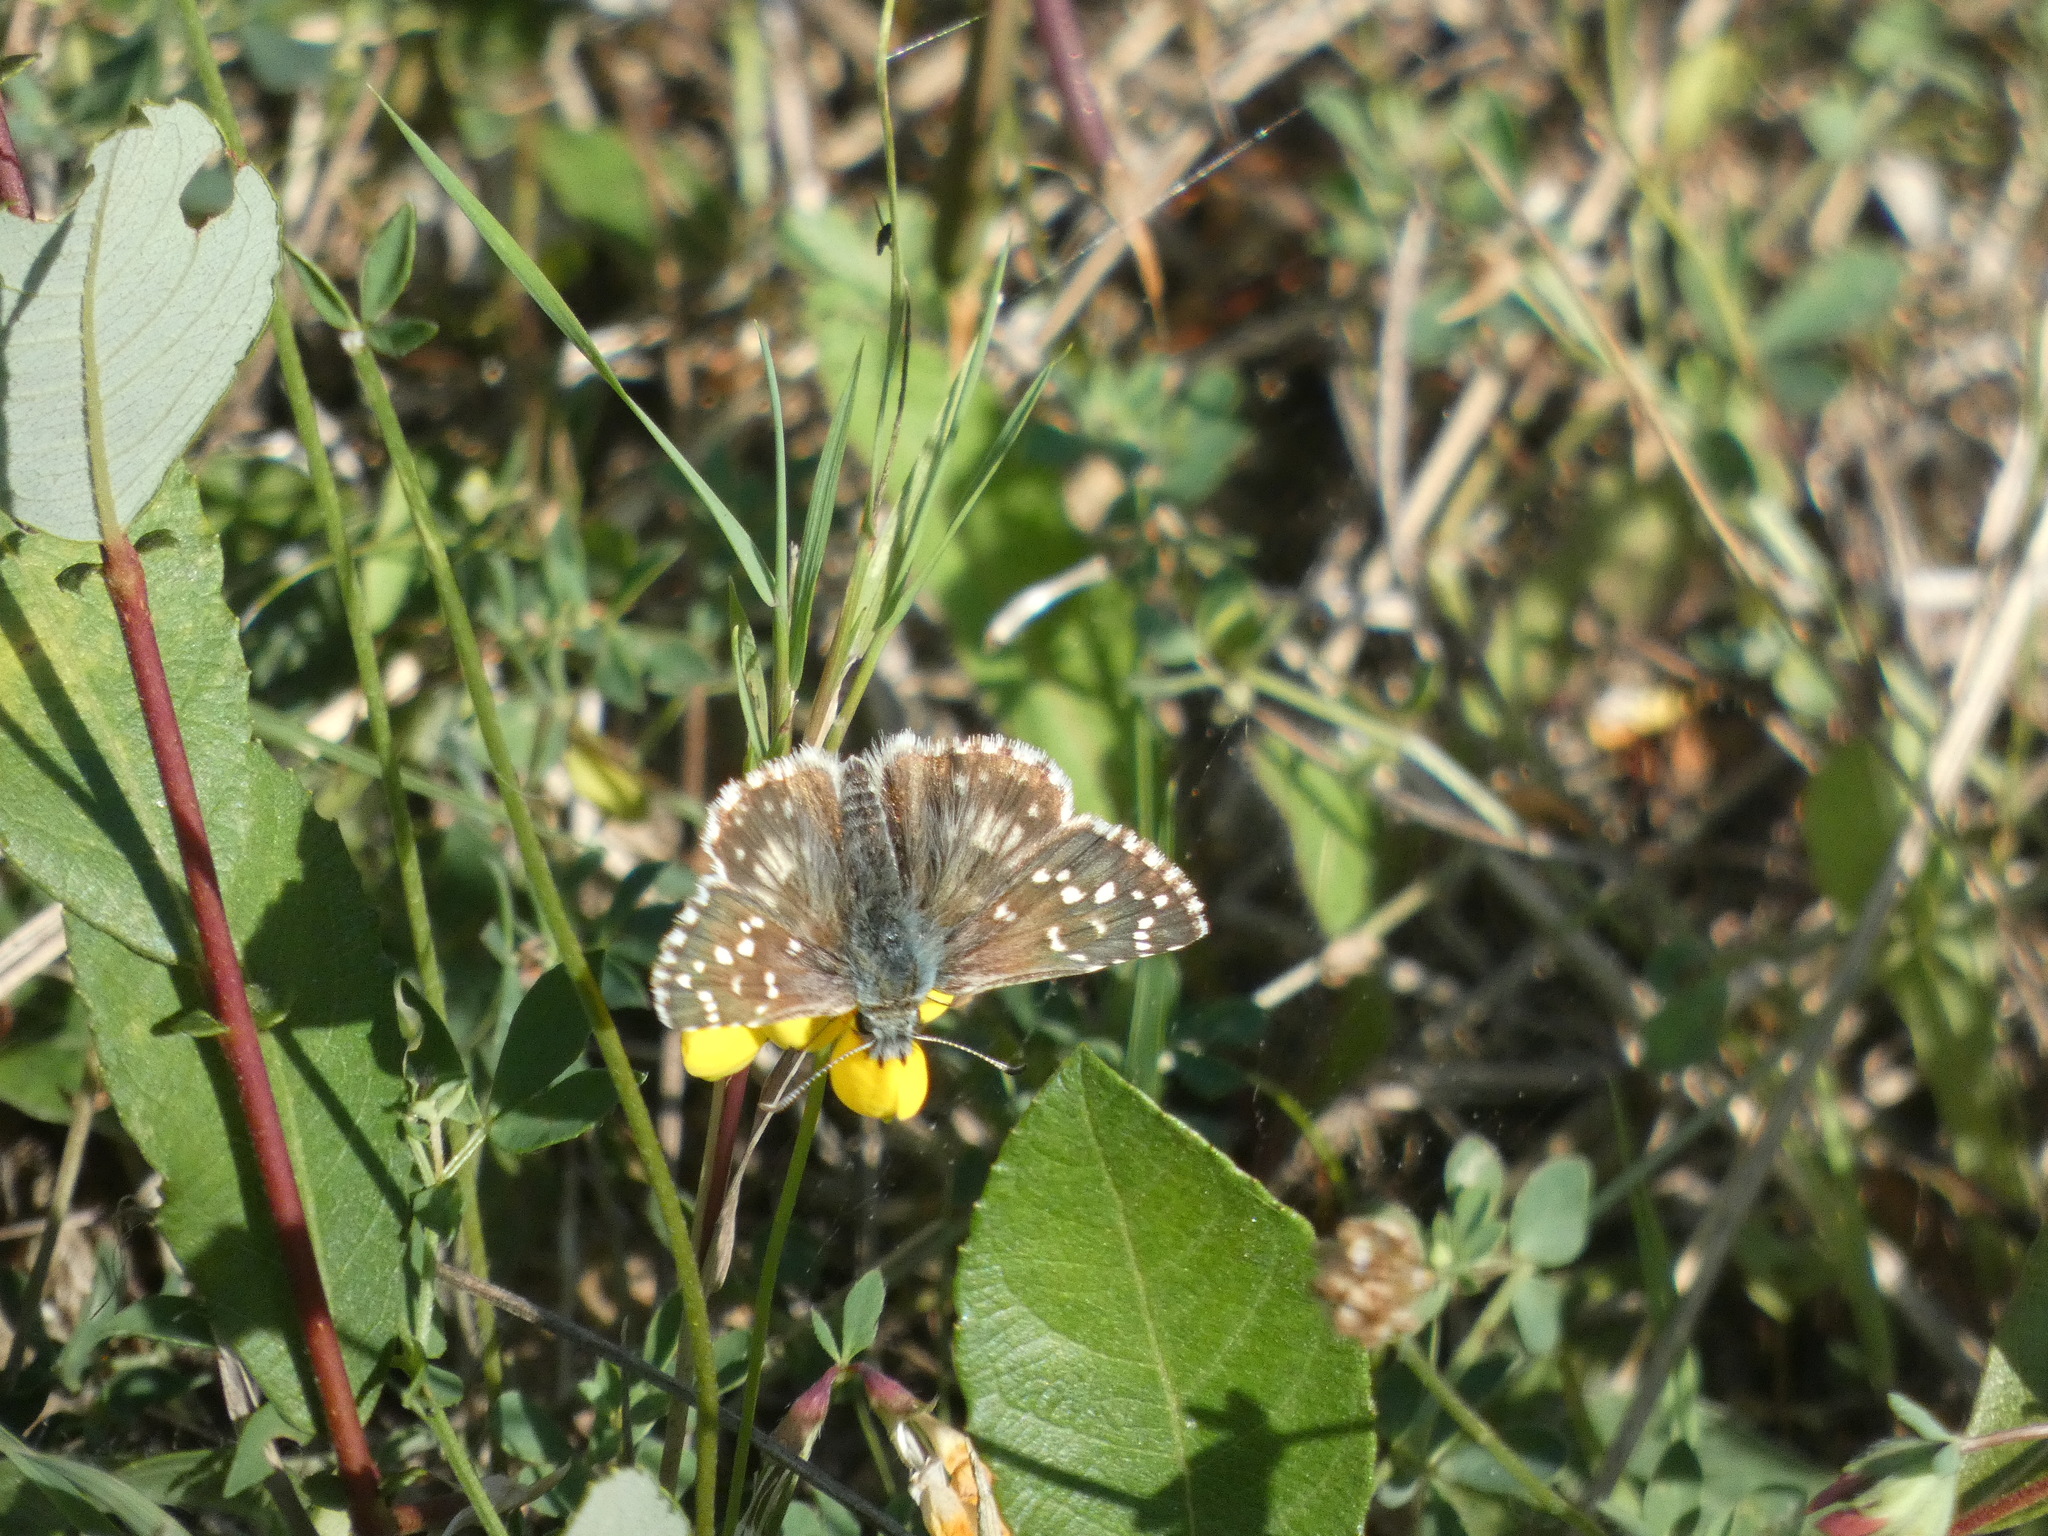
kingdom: Animalia
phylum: Arthropoda
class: Insecta
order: Lepidoptera
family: Hesperiidae
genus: Pyrgus
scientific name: Pyrgus armoricanus
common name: Oberthür's grizzled skipper
